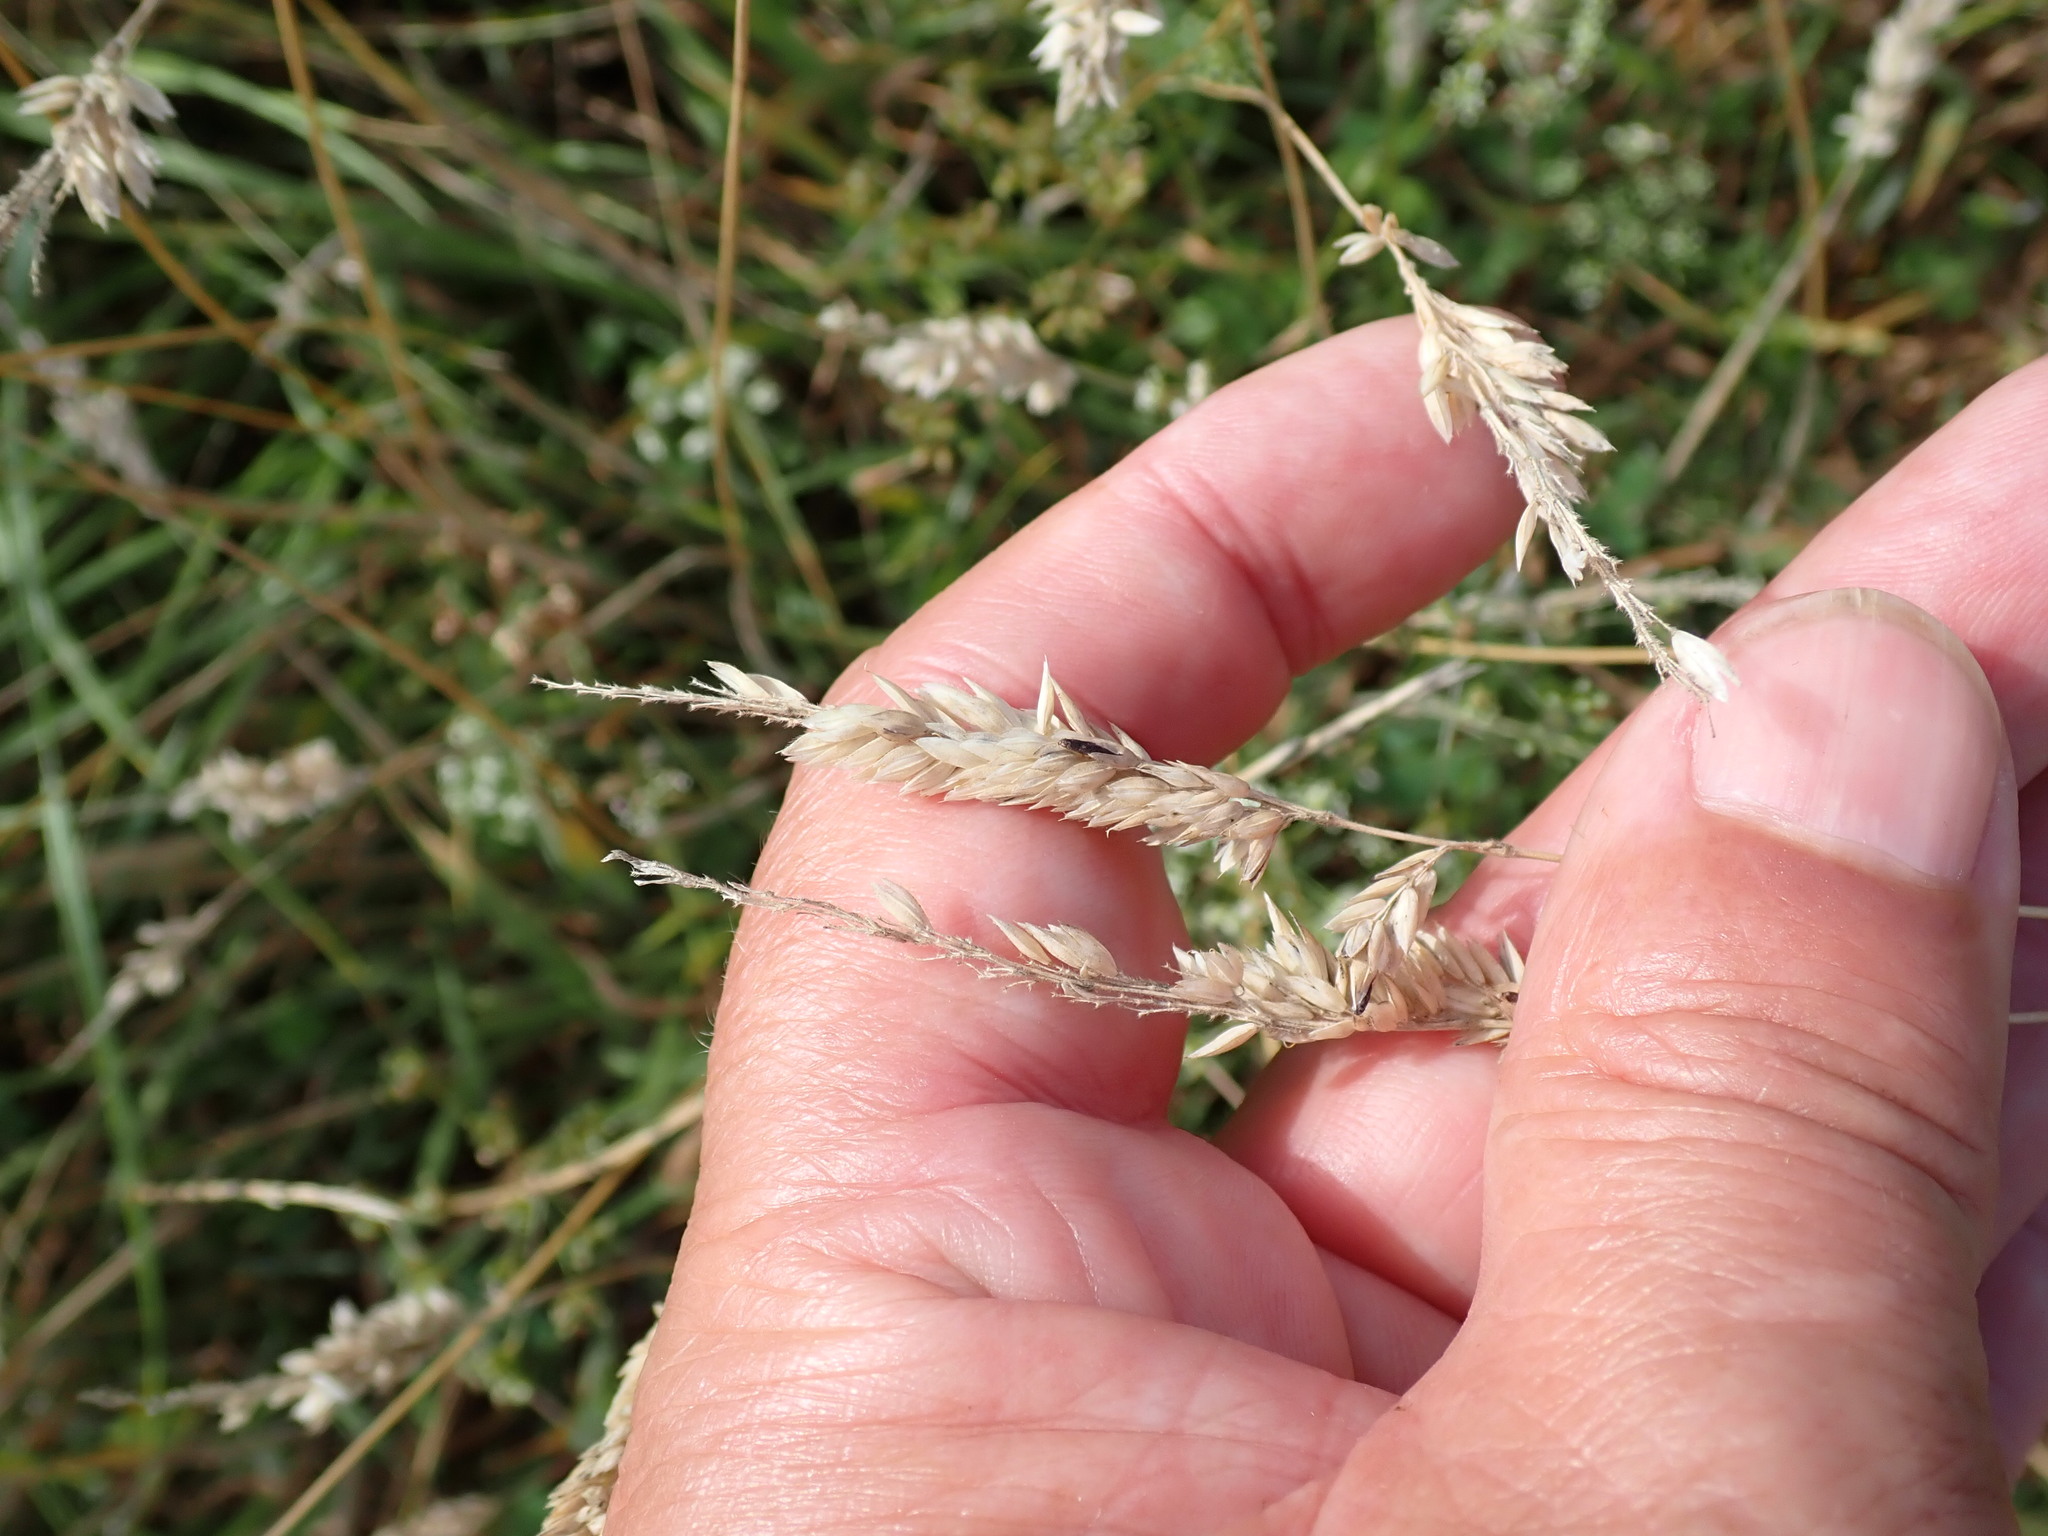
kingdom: Plantae
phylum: Tracheophyta
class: Liliopsida
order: Poales
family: Poaceae
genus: Holcus
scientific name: Holcus lanatus
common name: Yorkshire-fog
